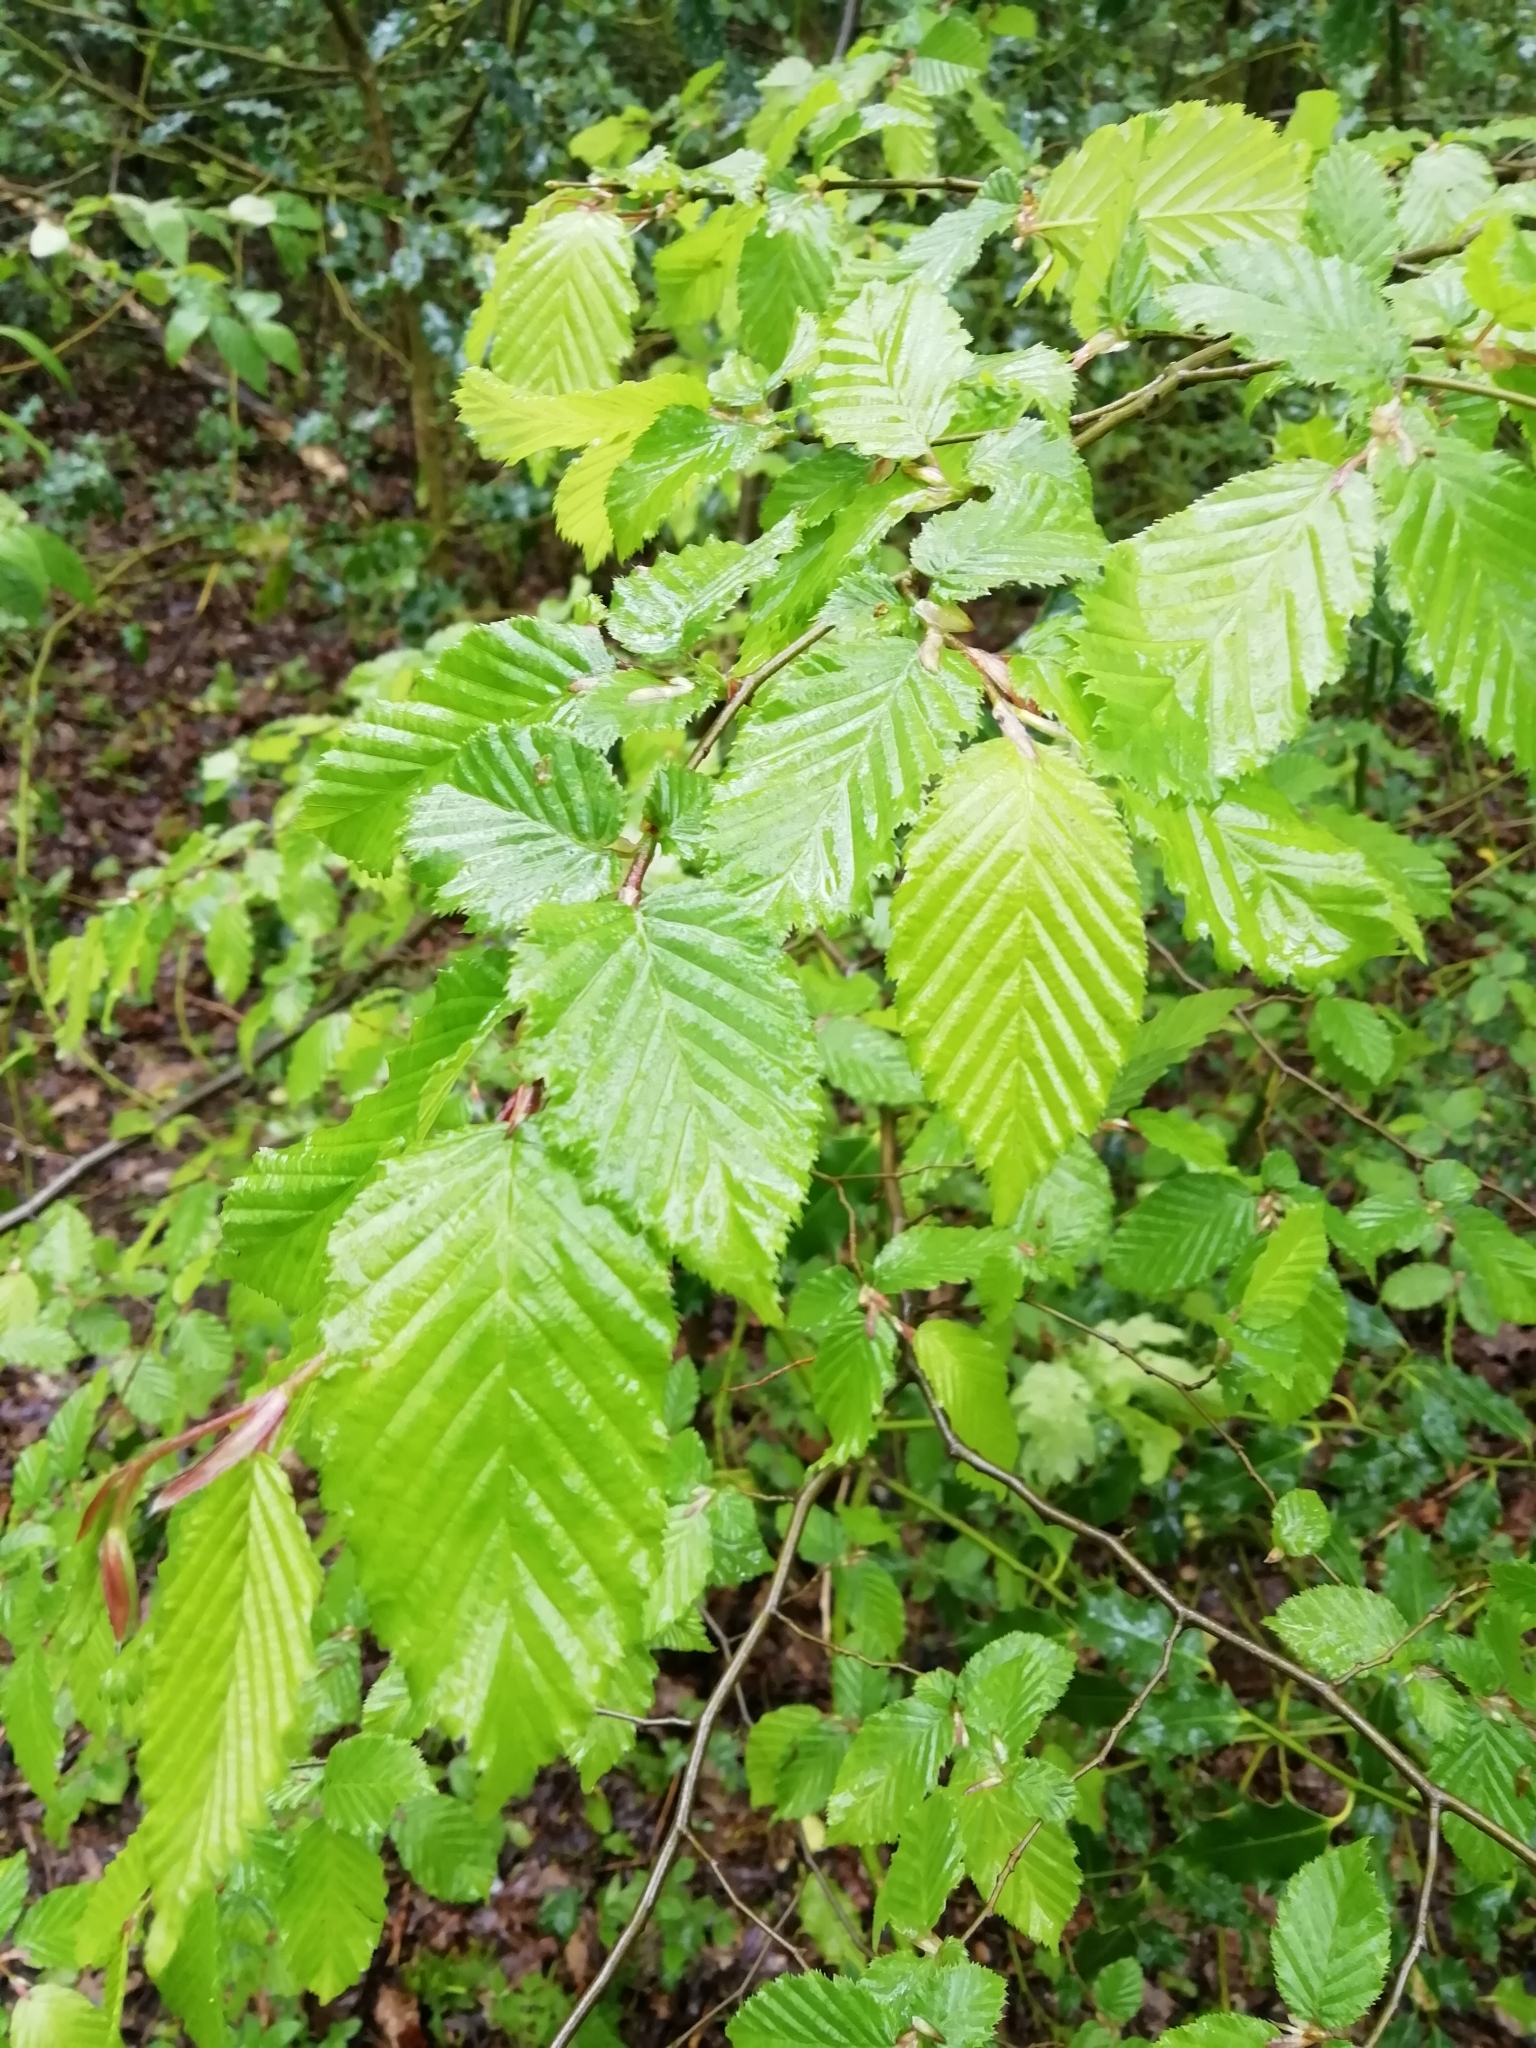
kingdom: Plantae
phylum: Tracheophyta
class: Magnoliopsida
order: Fagales
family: Betulaceae
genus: Carpinus
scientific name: Carpinus betulus
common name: Hornbeam
